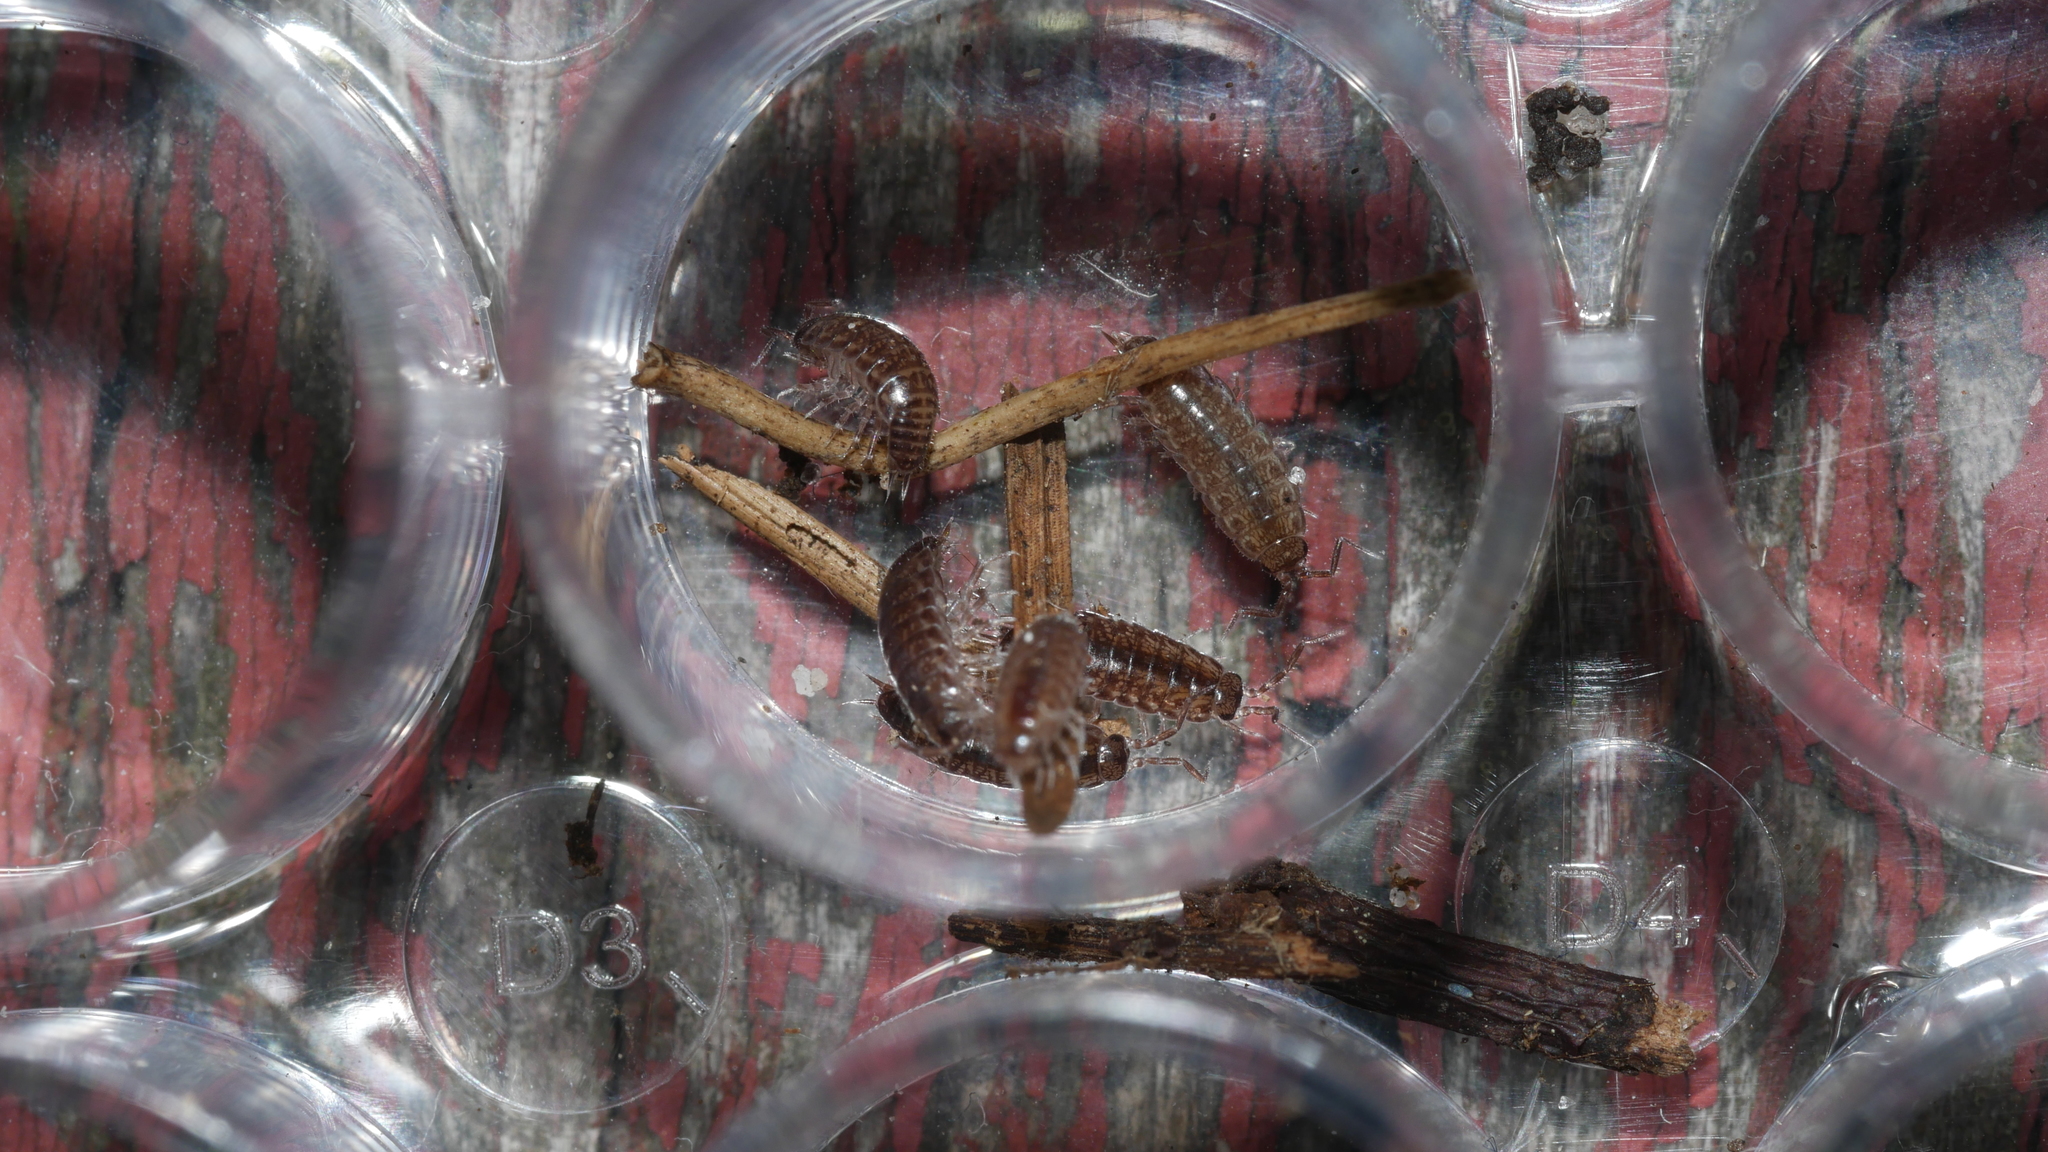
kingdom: Animalia
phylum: Arthropoda
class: Malacostraca
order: Isopoda
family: Philosciidae
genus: Chaetophiloscia
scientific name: Chaetophiloscia sicula
